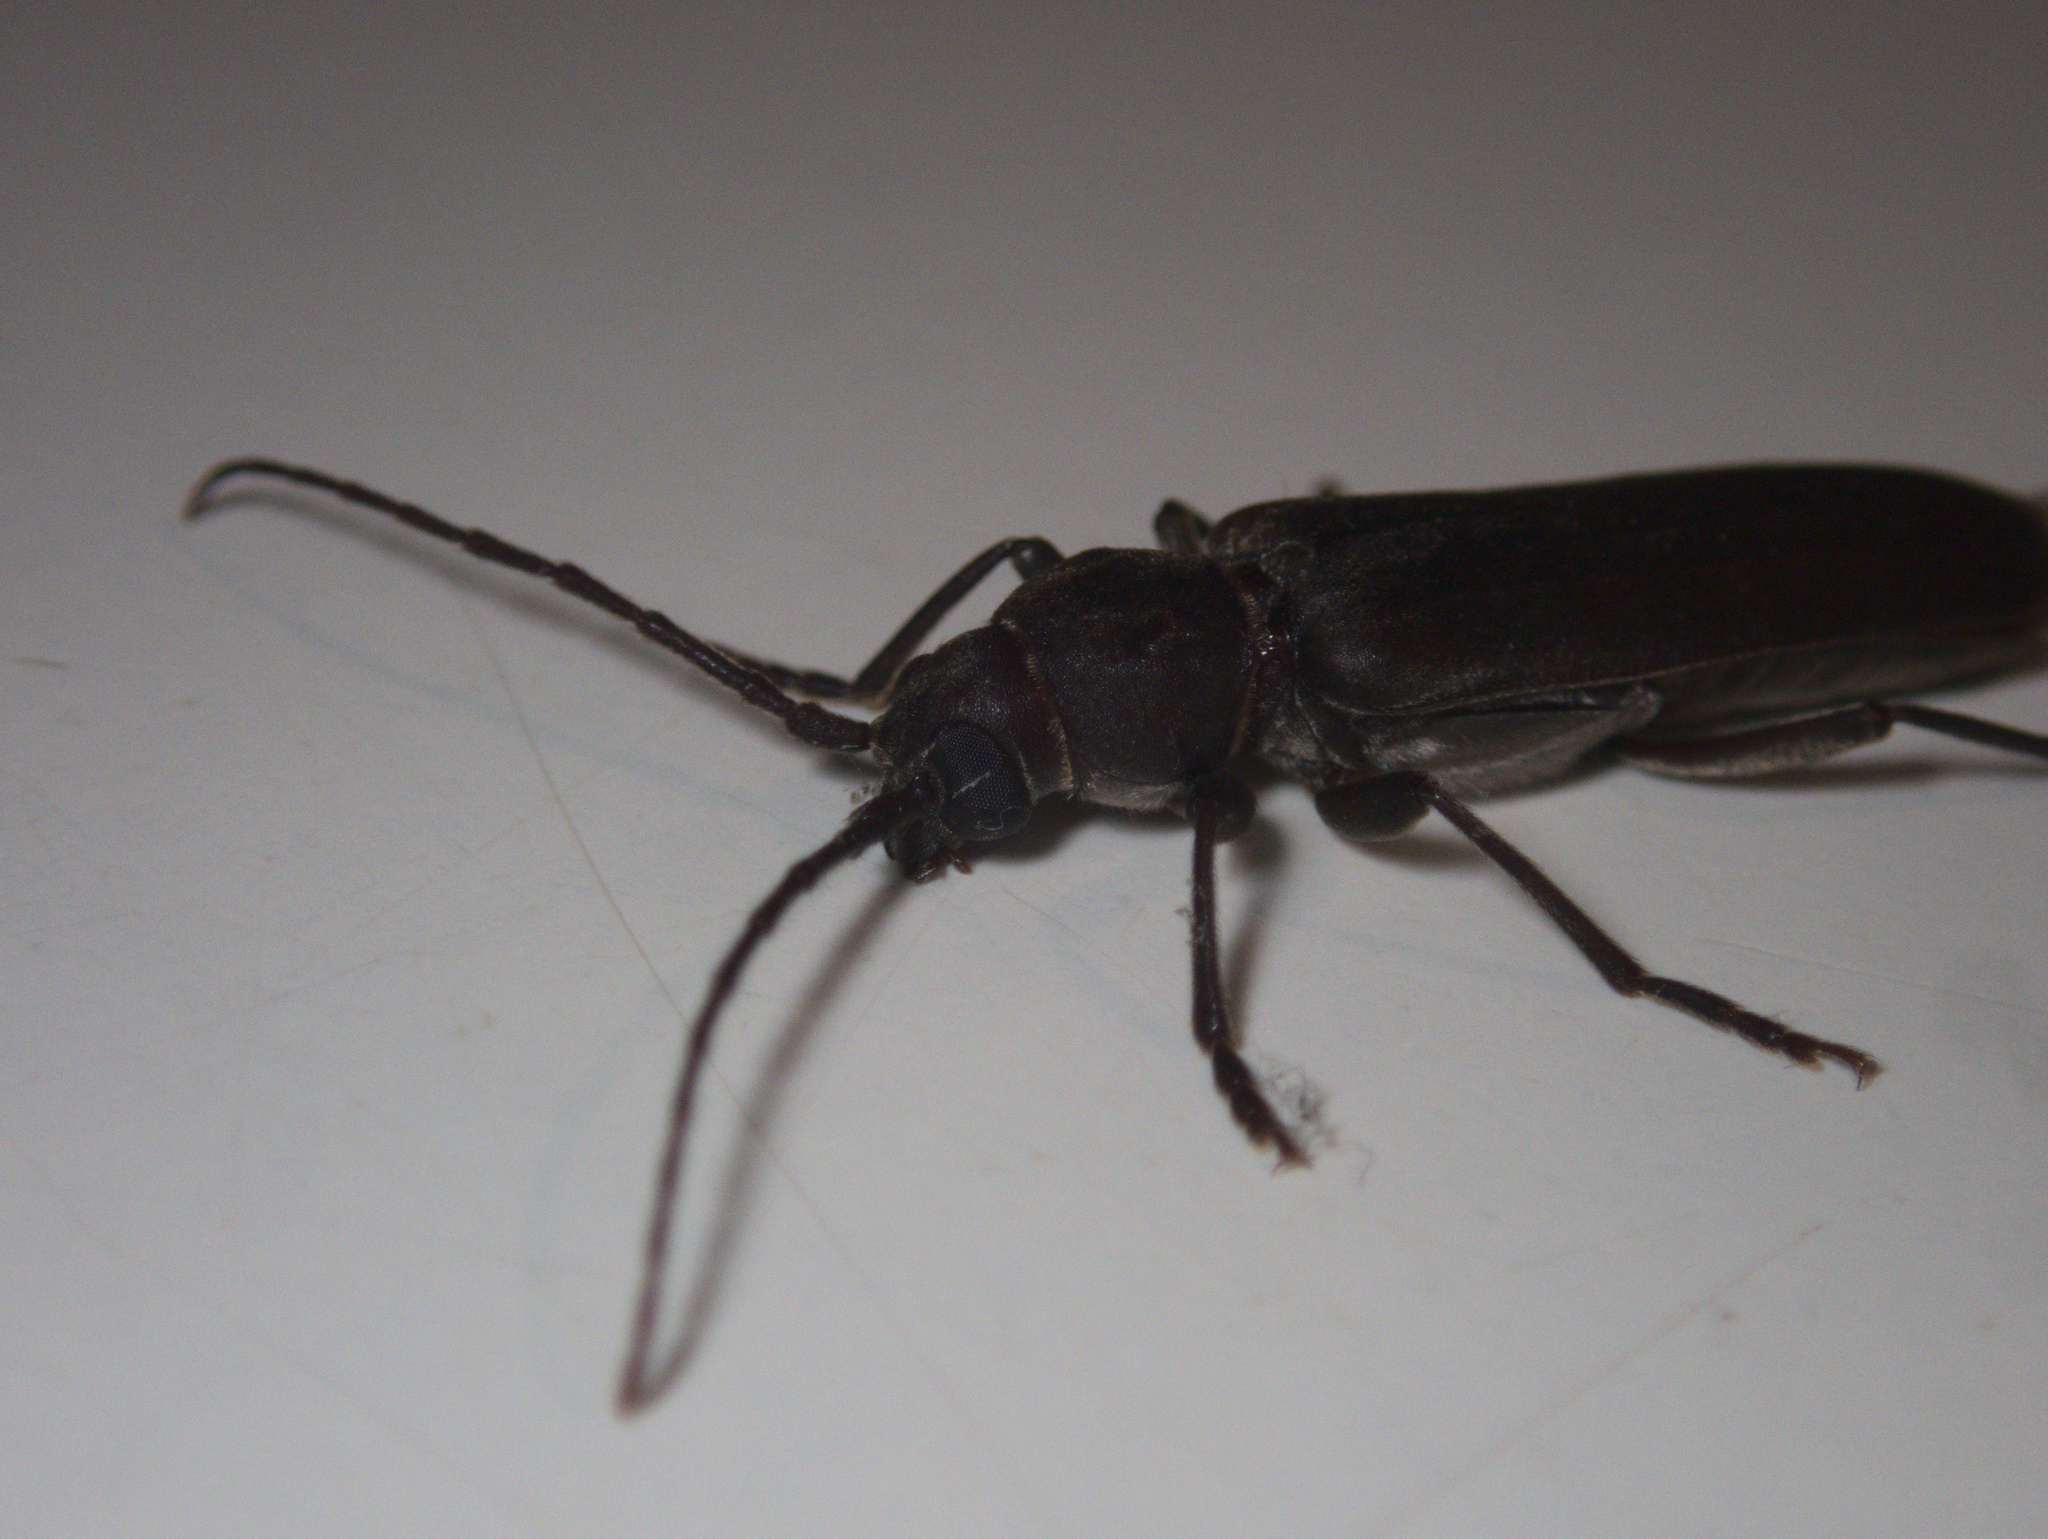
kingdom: Animalia
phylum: Arthropoda
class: Insecta
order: Coleoptera
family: Cerambycidae
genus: Arhopalus
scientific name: Arhopalus ferus
